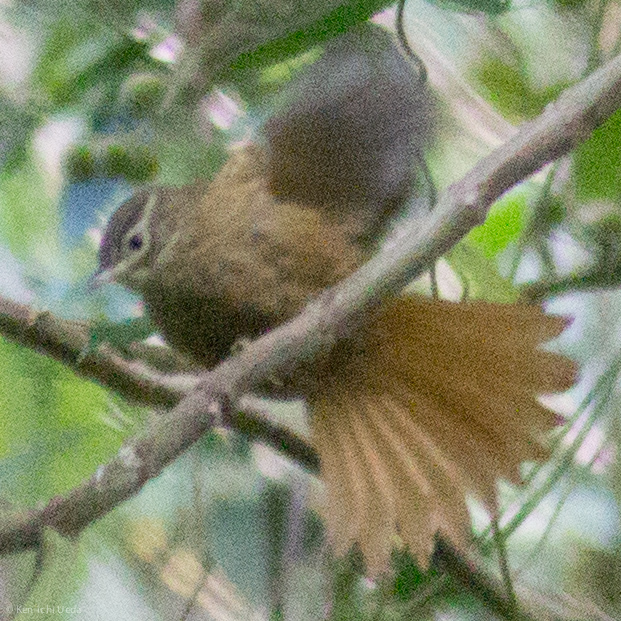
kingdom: Animalia
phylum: Chordata
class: Aves
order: Passeriformes
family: Furnariidae
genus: Anabacerthia
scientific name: Anabacerthia striaticollis
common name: Montane foliage-gleaner
